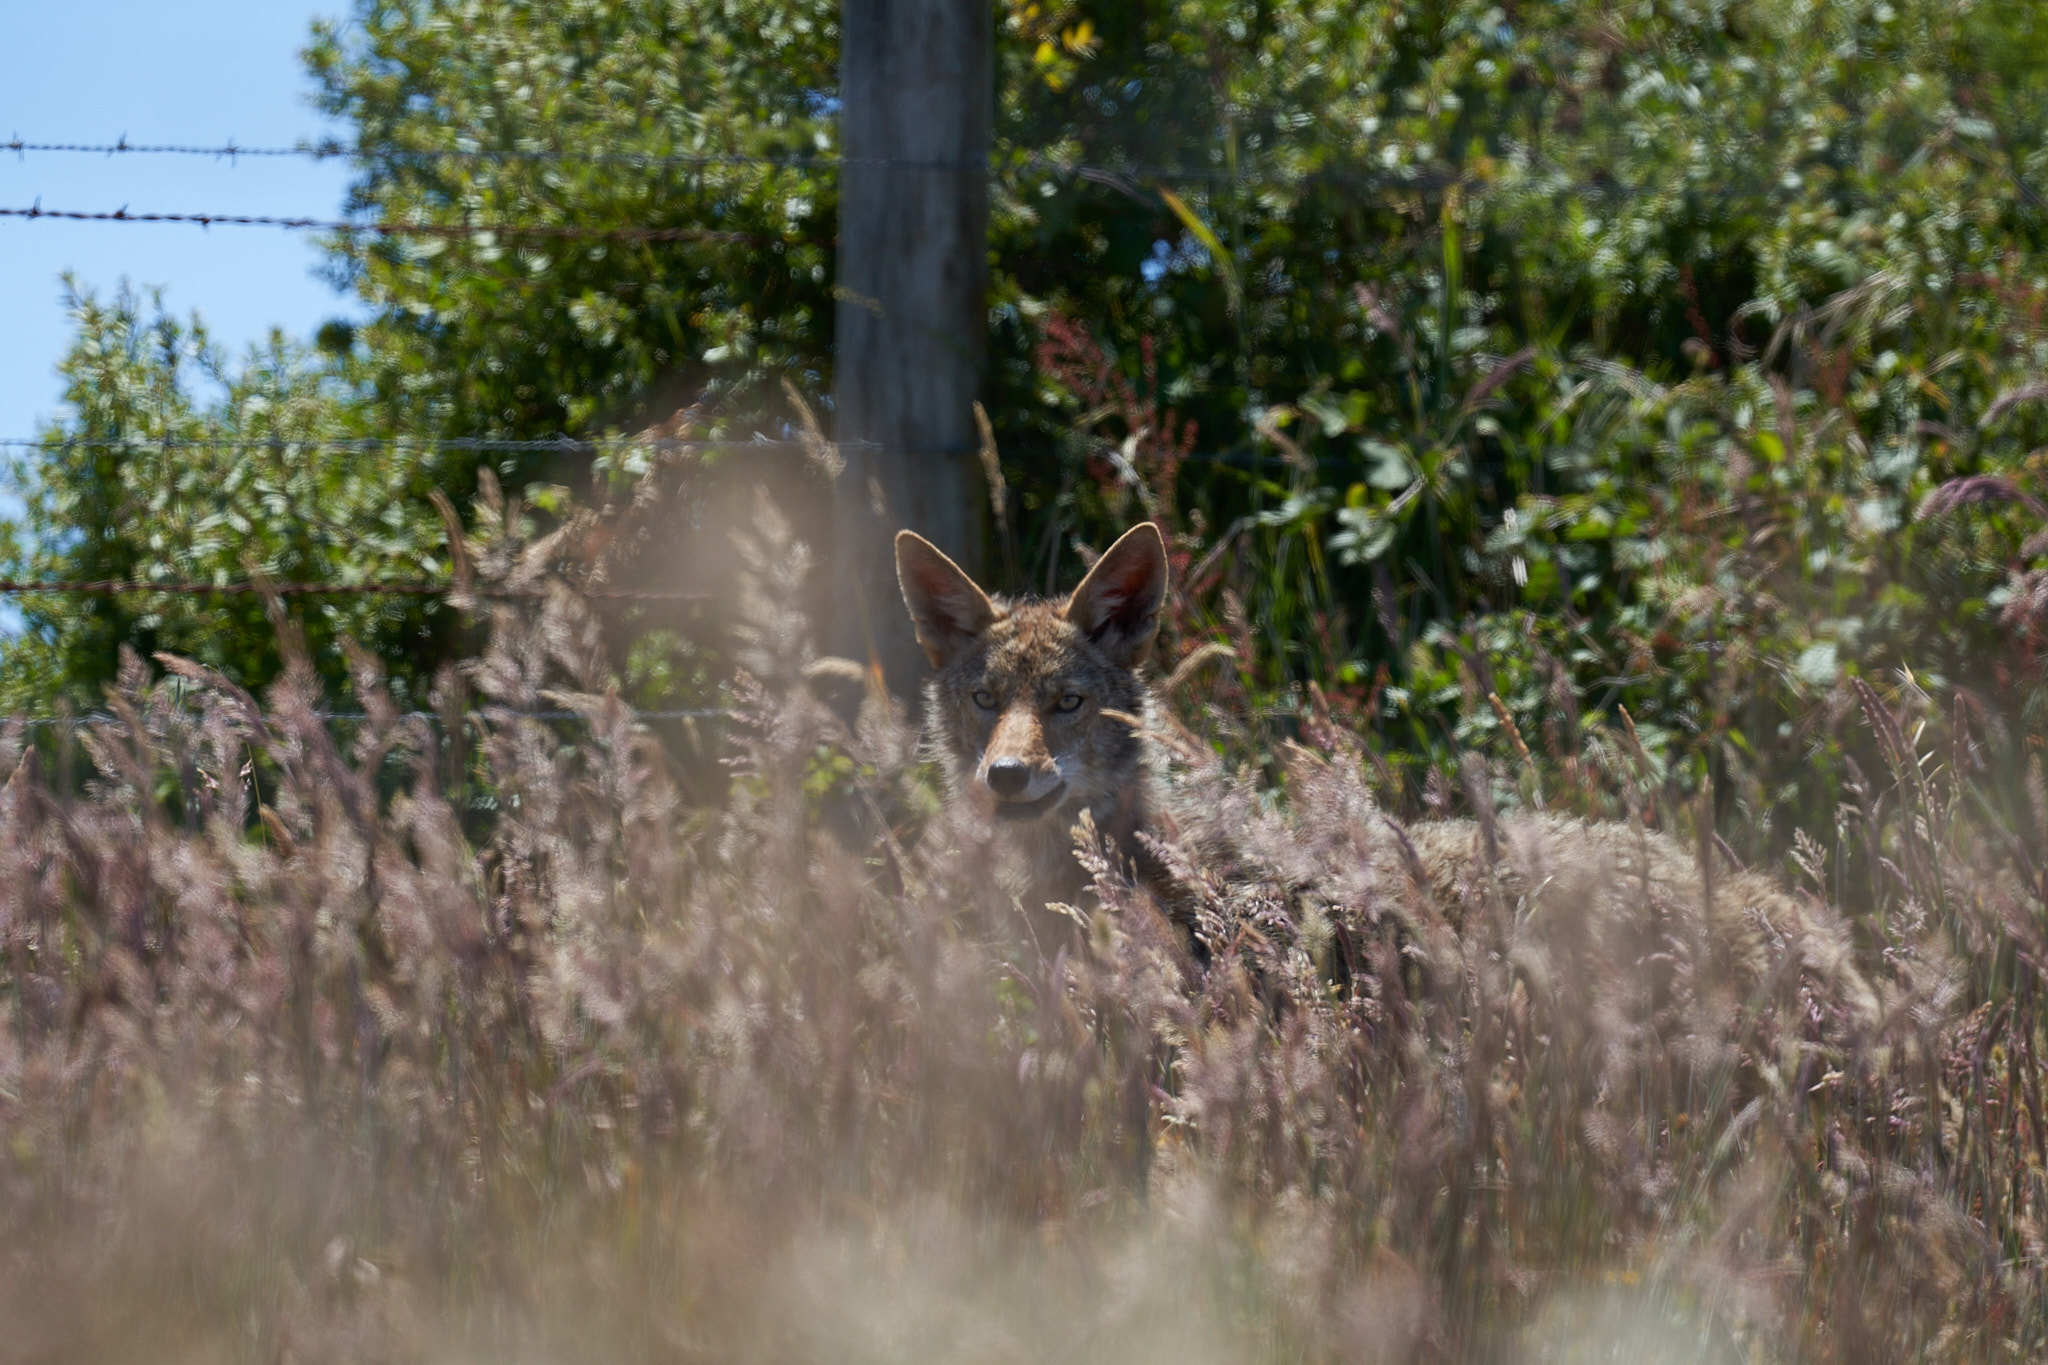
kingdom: Animalia
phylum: Chordata
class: Mammalia
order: Carnivora
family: Canidae
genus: Canis
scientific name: Canis latrans
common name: Coyote
